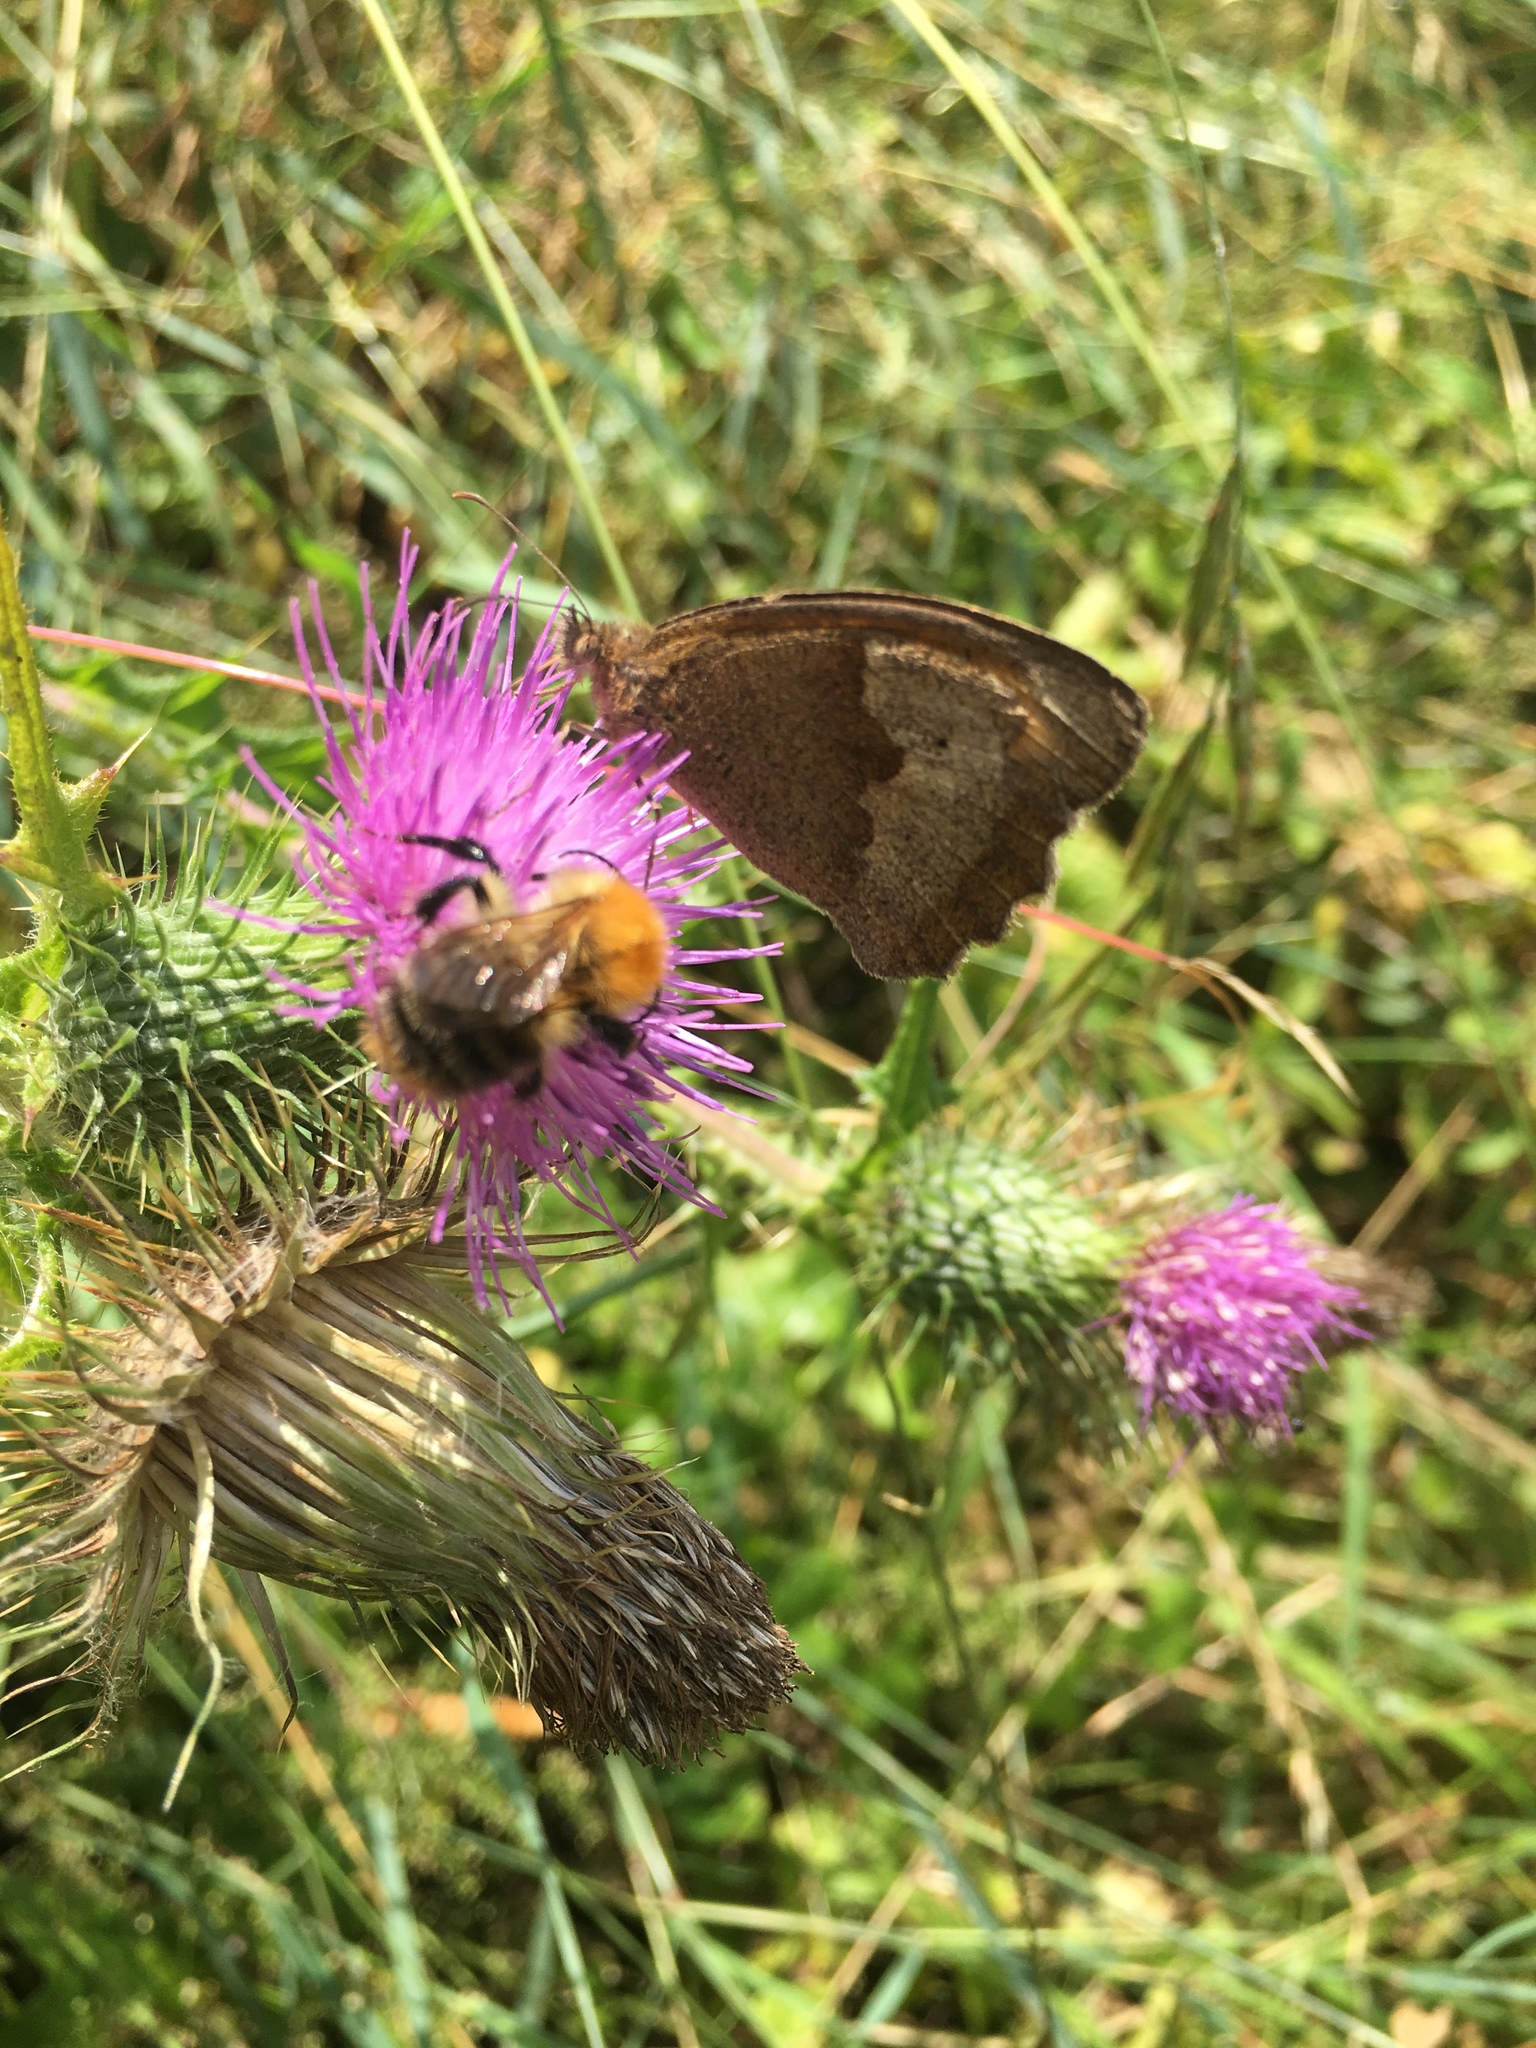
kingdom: Animalia
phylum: Arthropoda
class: Insecta
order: Lepidoptera
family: Nymphalidae
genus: Maniola
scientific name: Maniola jurtina
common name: Meadow brown
